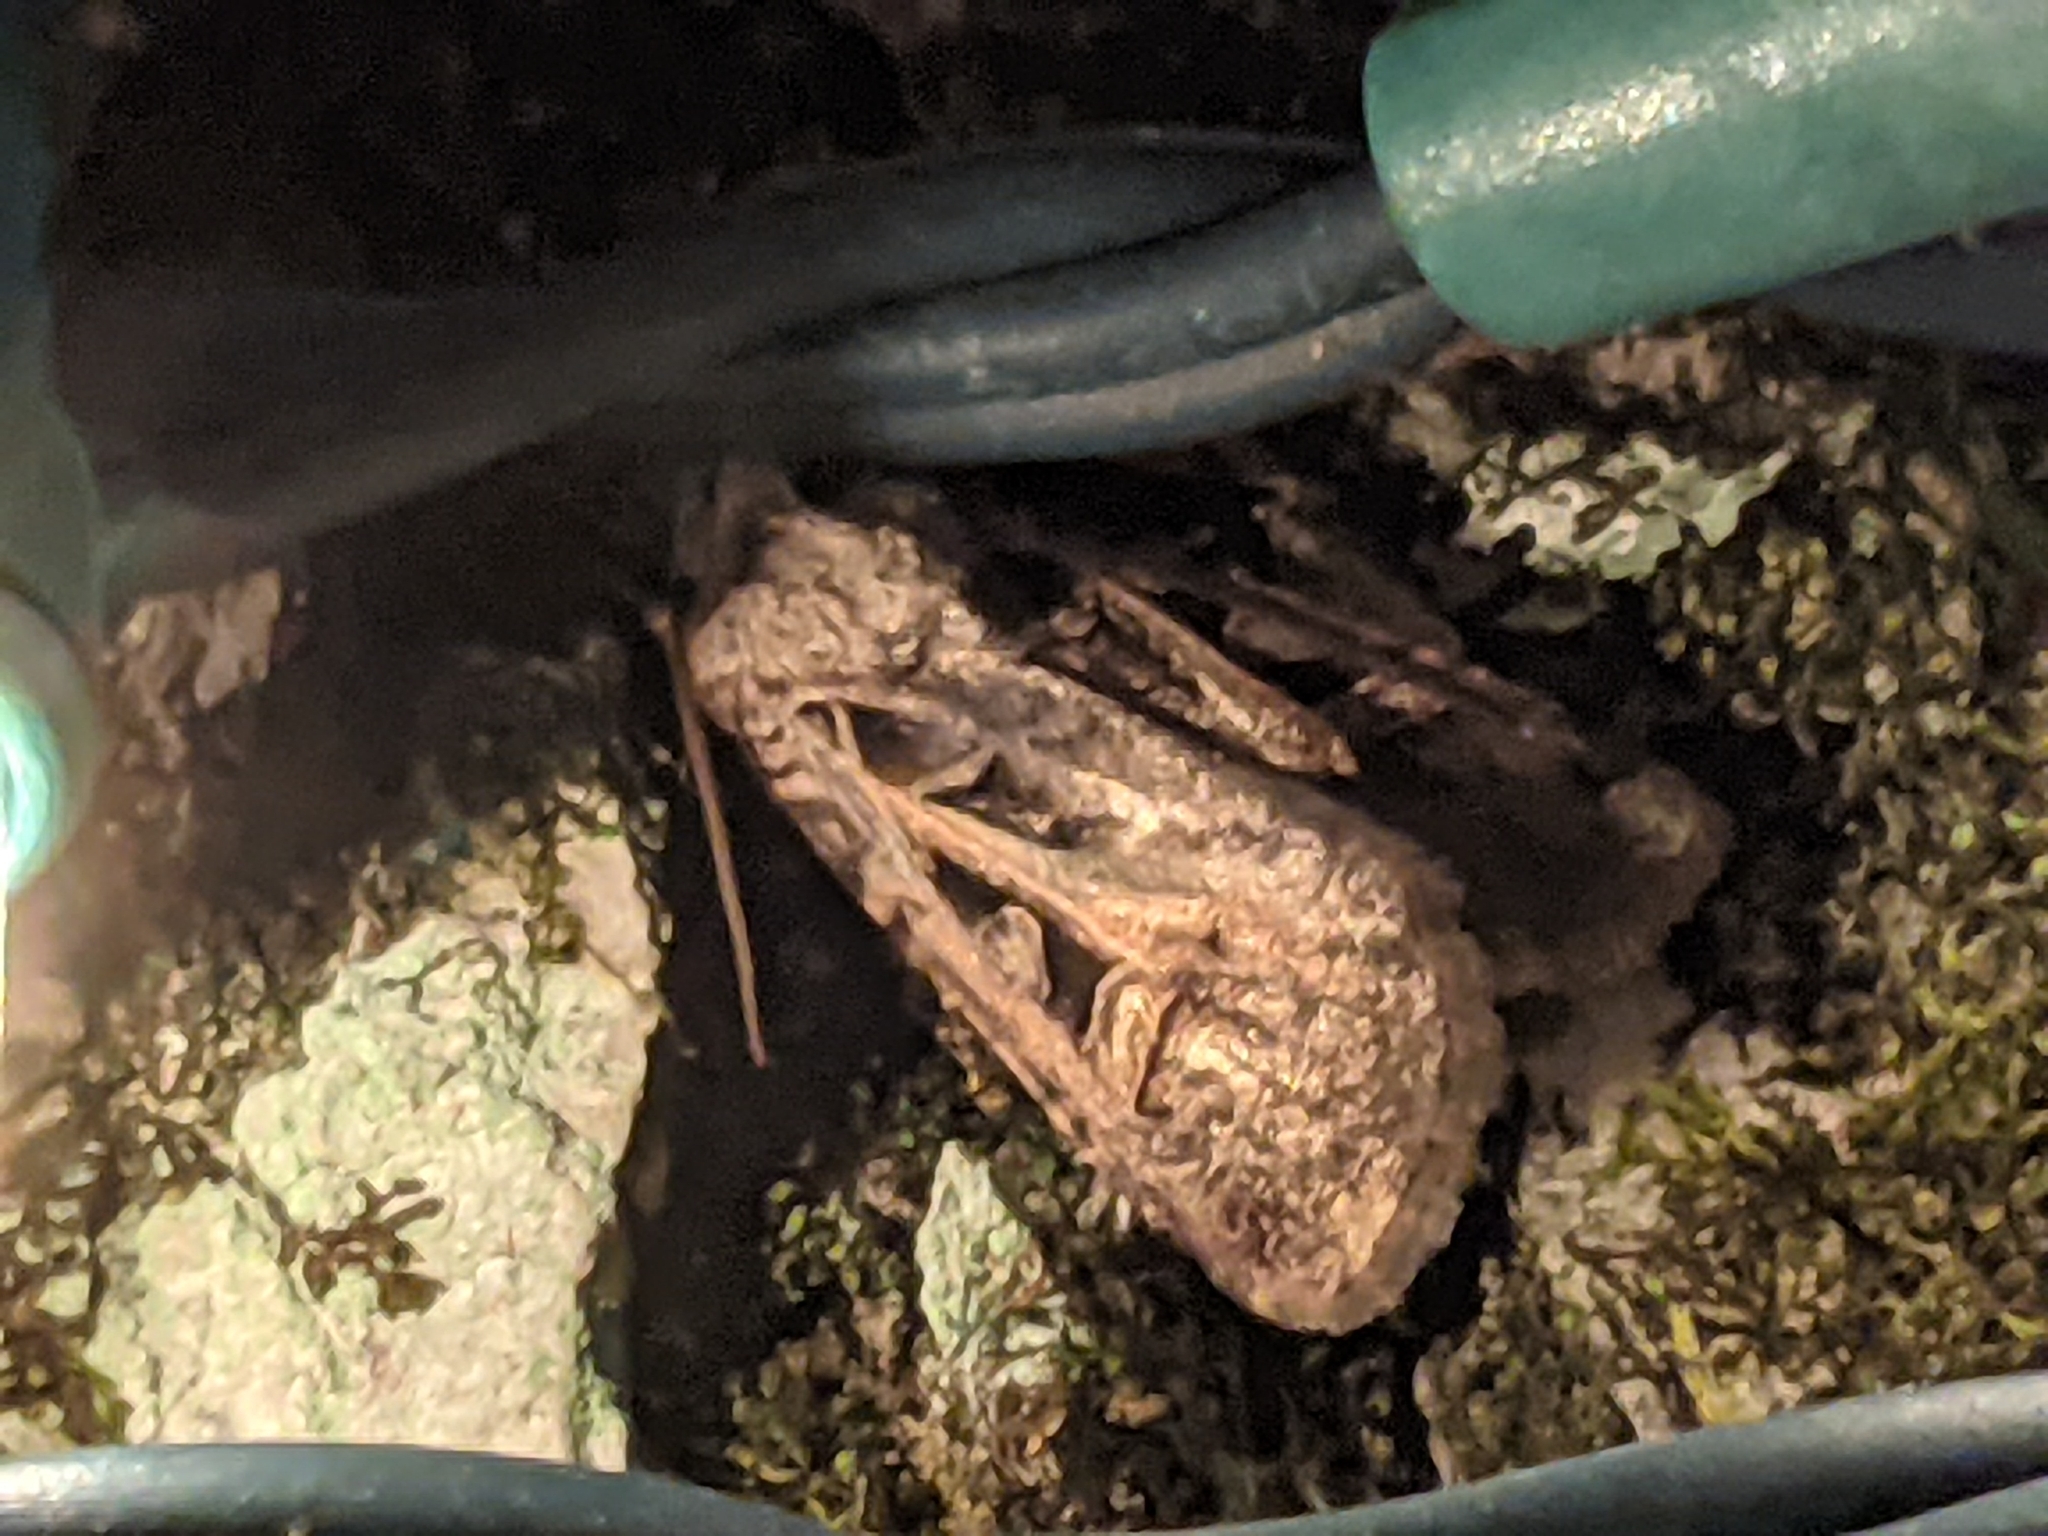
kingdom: Animalia
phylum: Arthropoda
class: Insecta
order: Lepidoptera
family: Noctuidae
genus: Feltia
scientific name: Feltia herilis
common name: Master's dart
